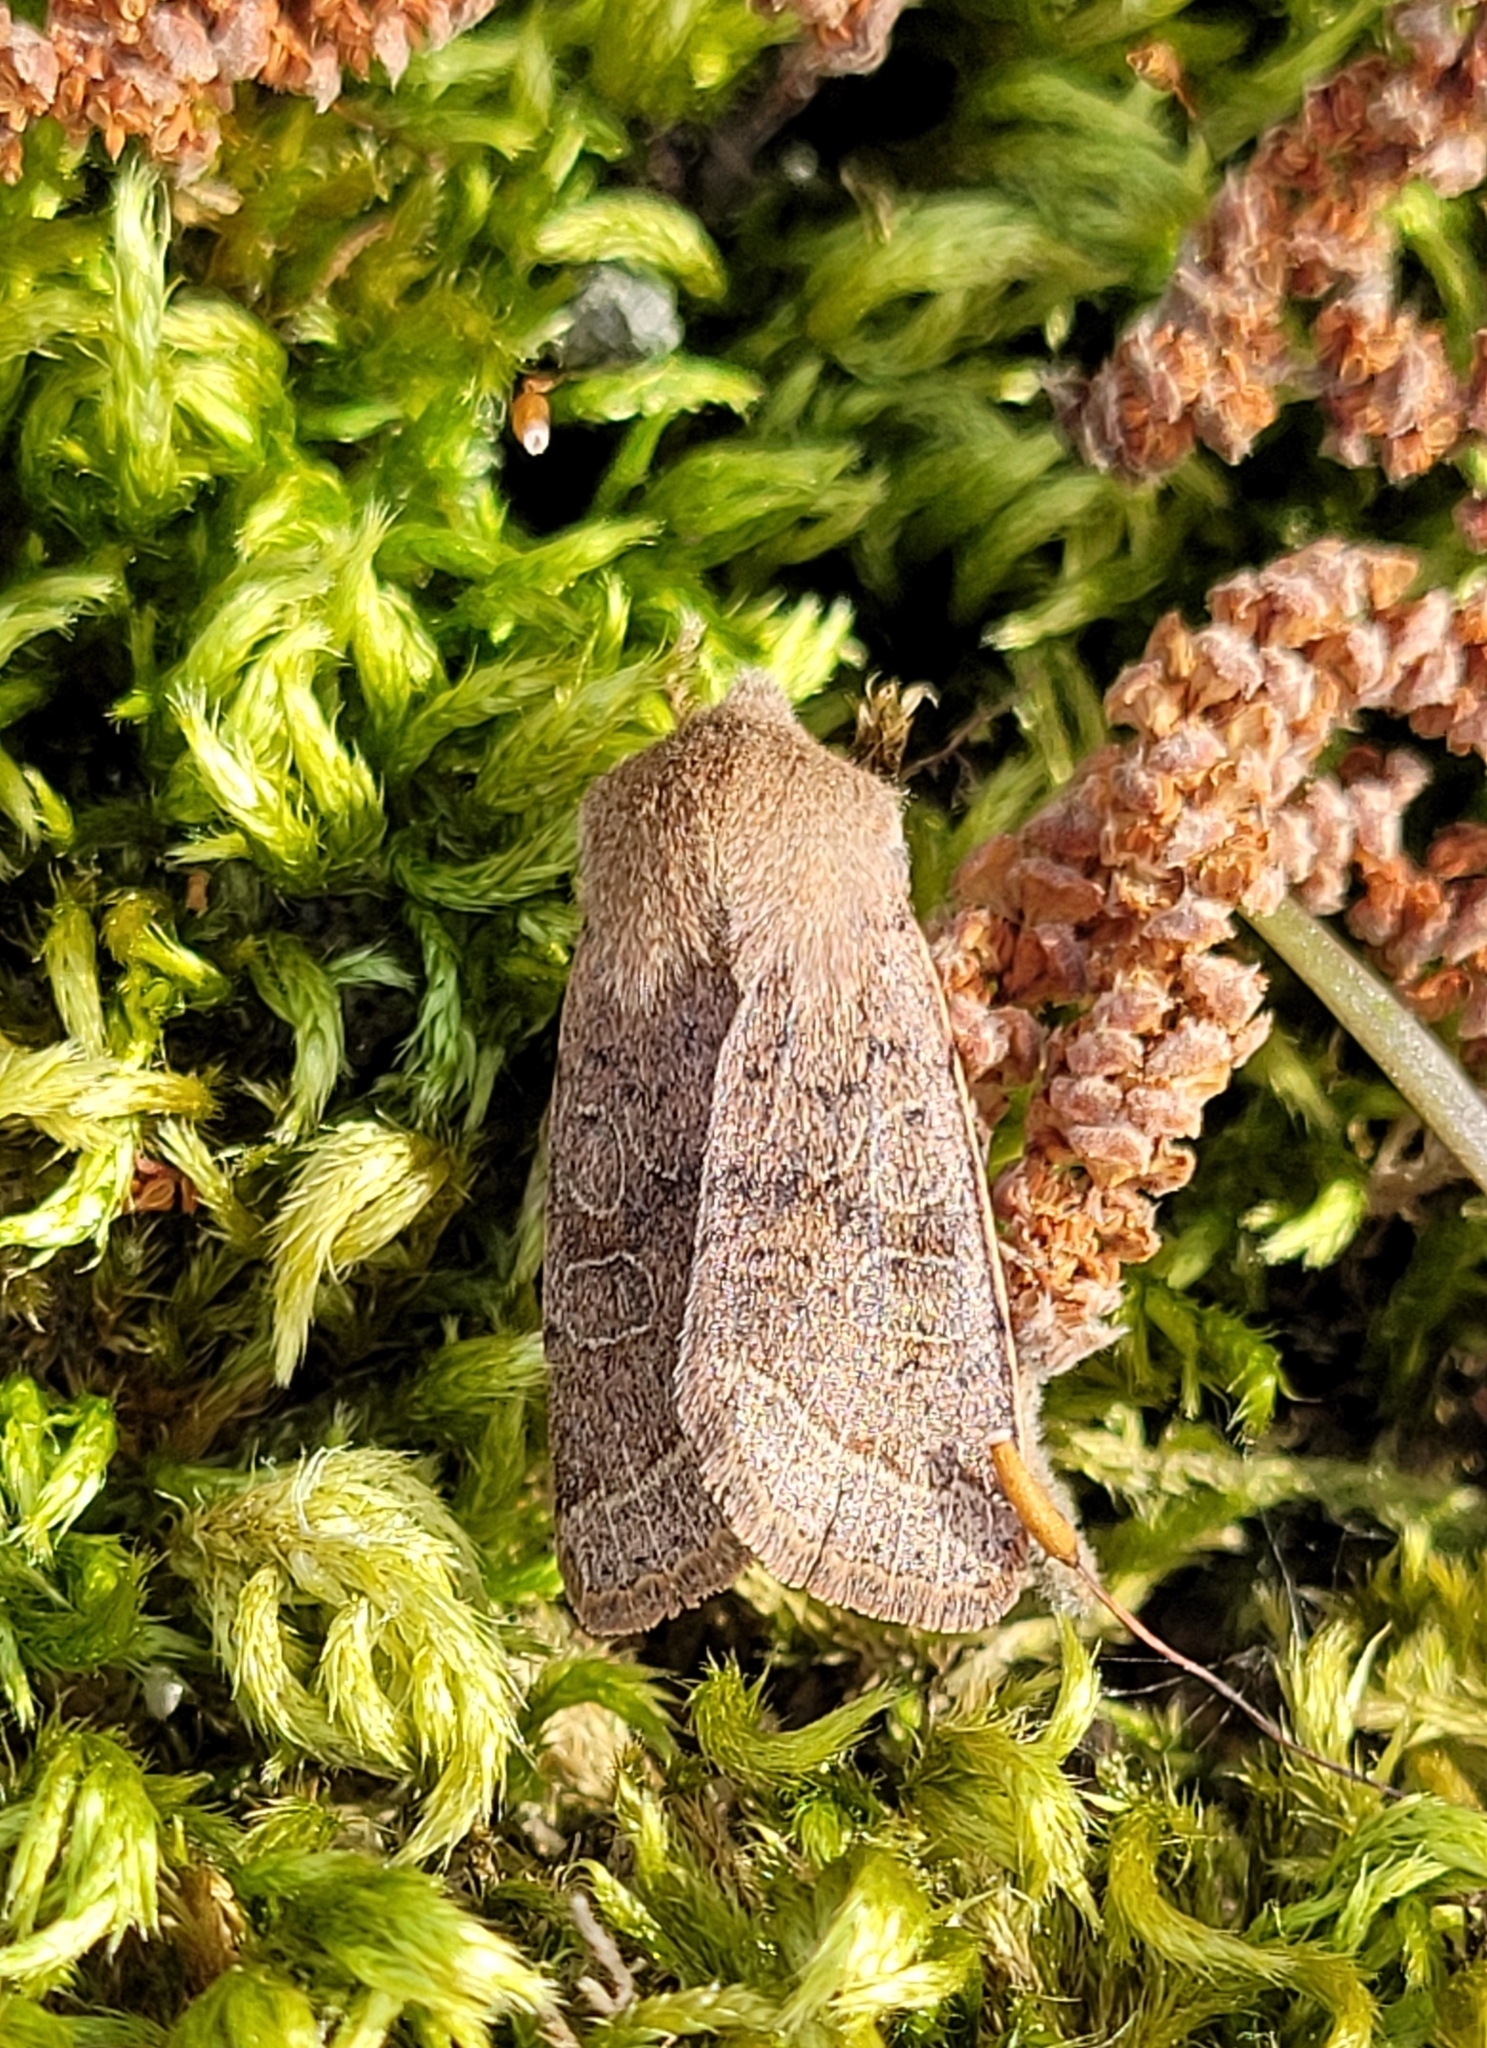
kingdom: Animalia
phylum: Arthropoda
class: Insecta
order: Lepidoptera
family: Noctuidae
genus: Orthosia
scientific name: Orthosia cerasi
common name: Common quaker
